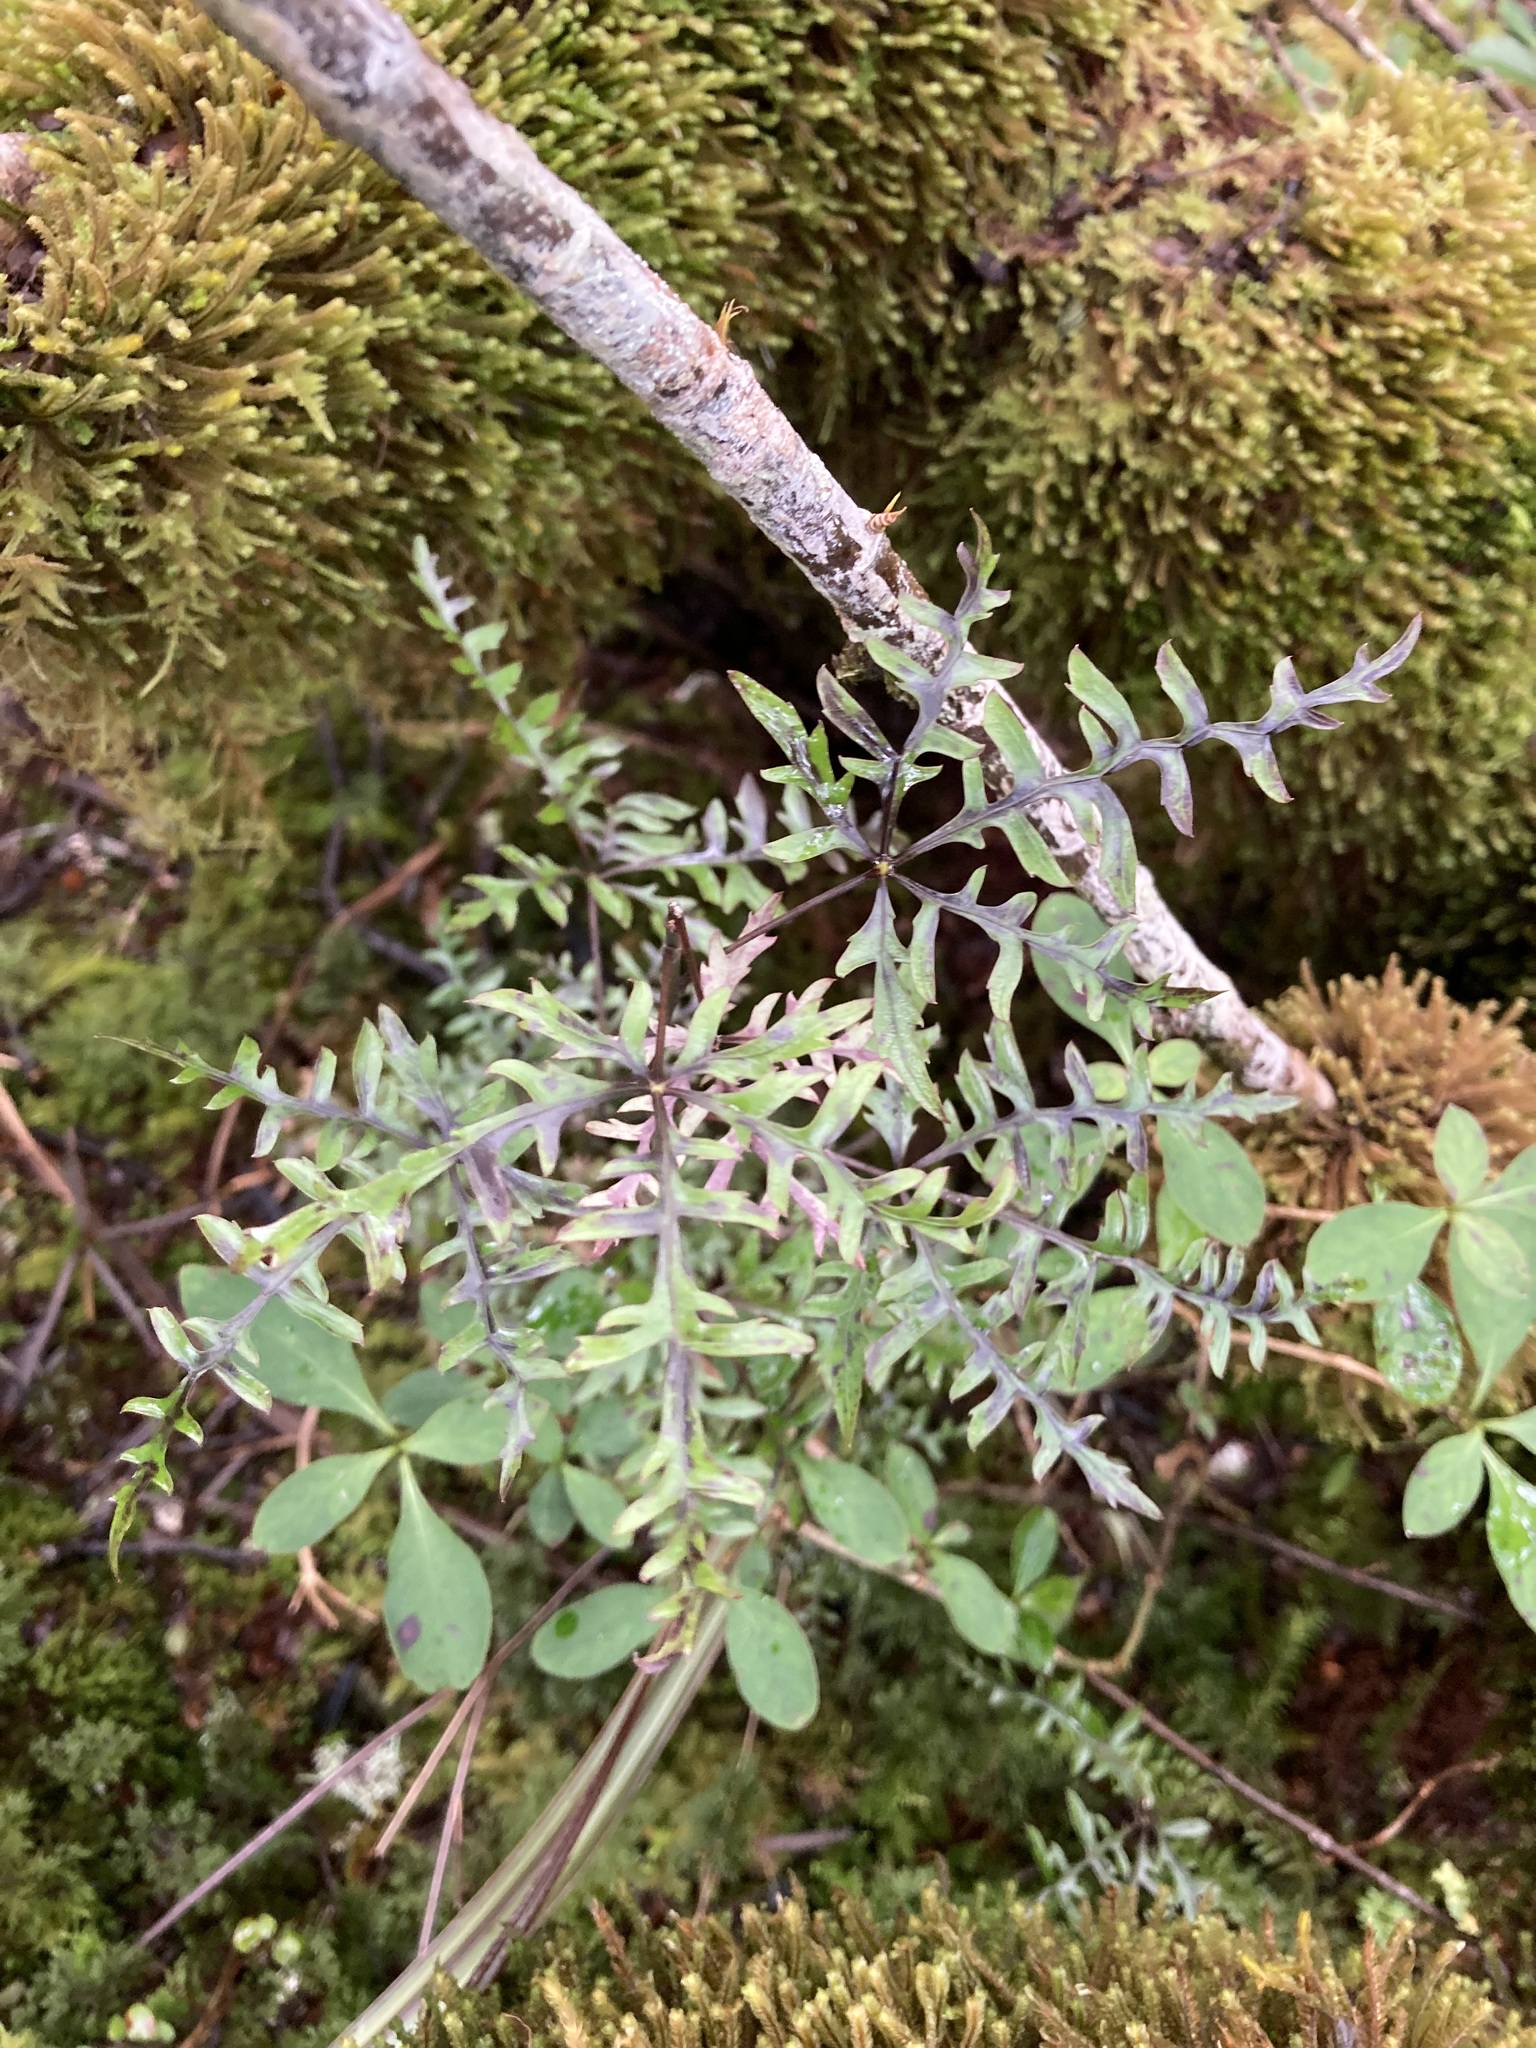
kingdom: Plantae
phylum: Tracheophyta
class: Magnoliopsida
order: Apiales
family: Araliaceae
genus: Raukaua
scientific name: Raukaua simplex
